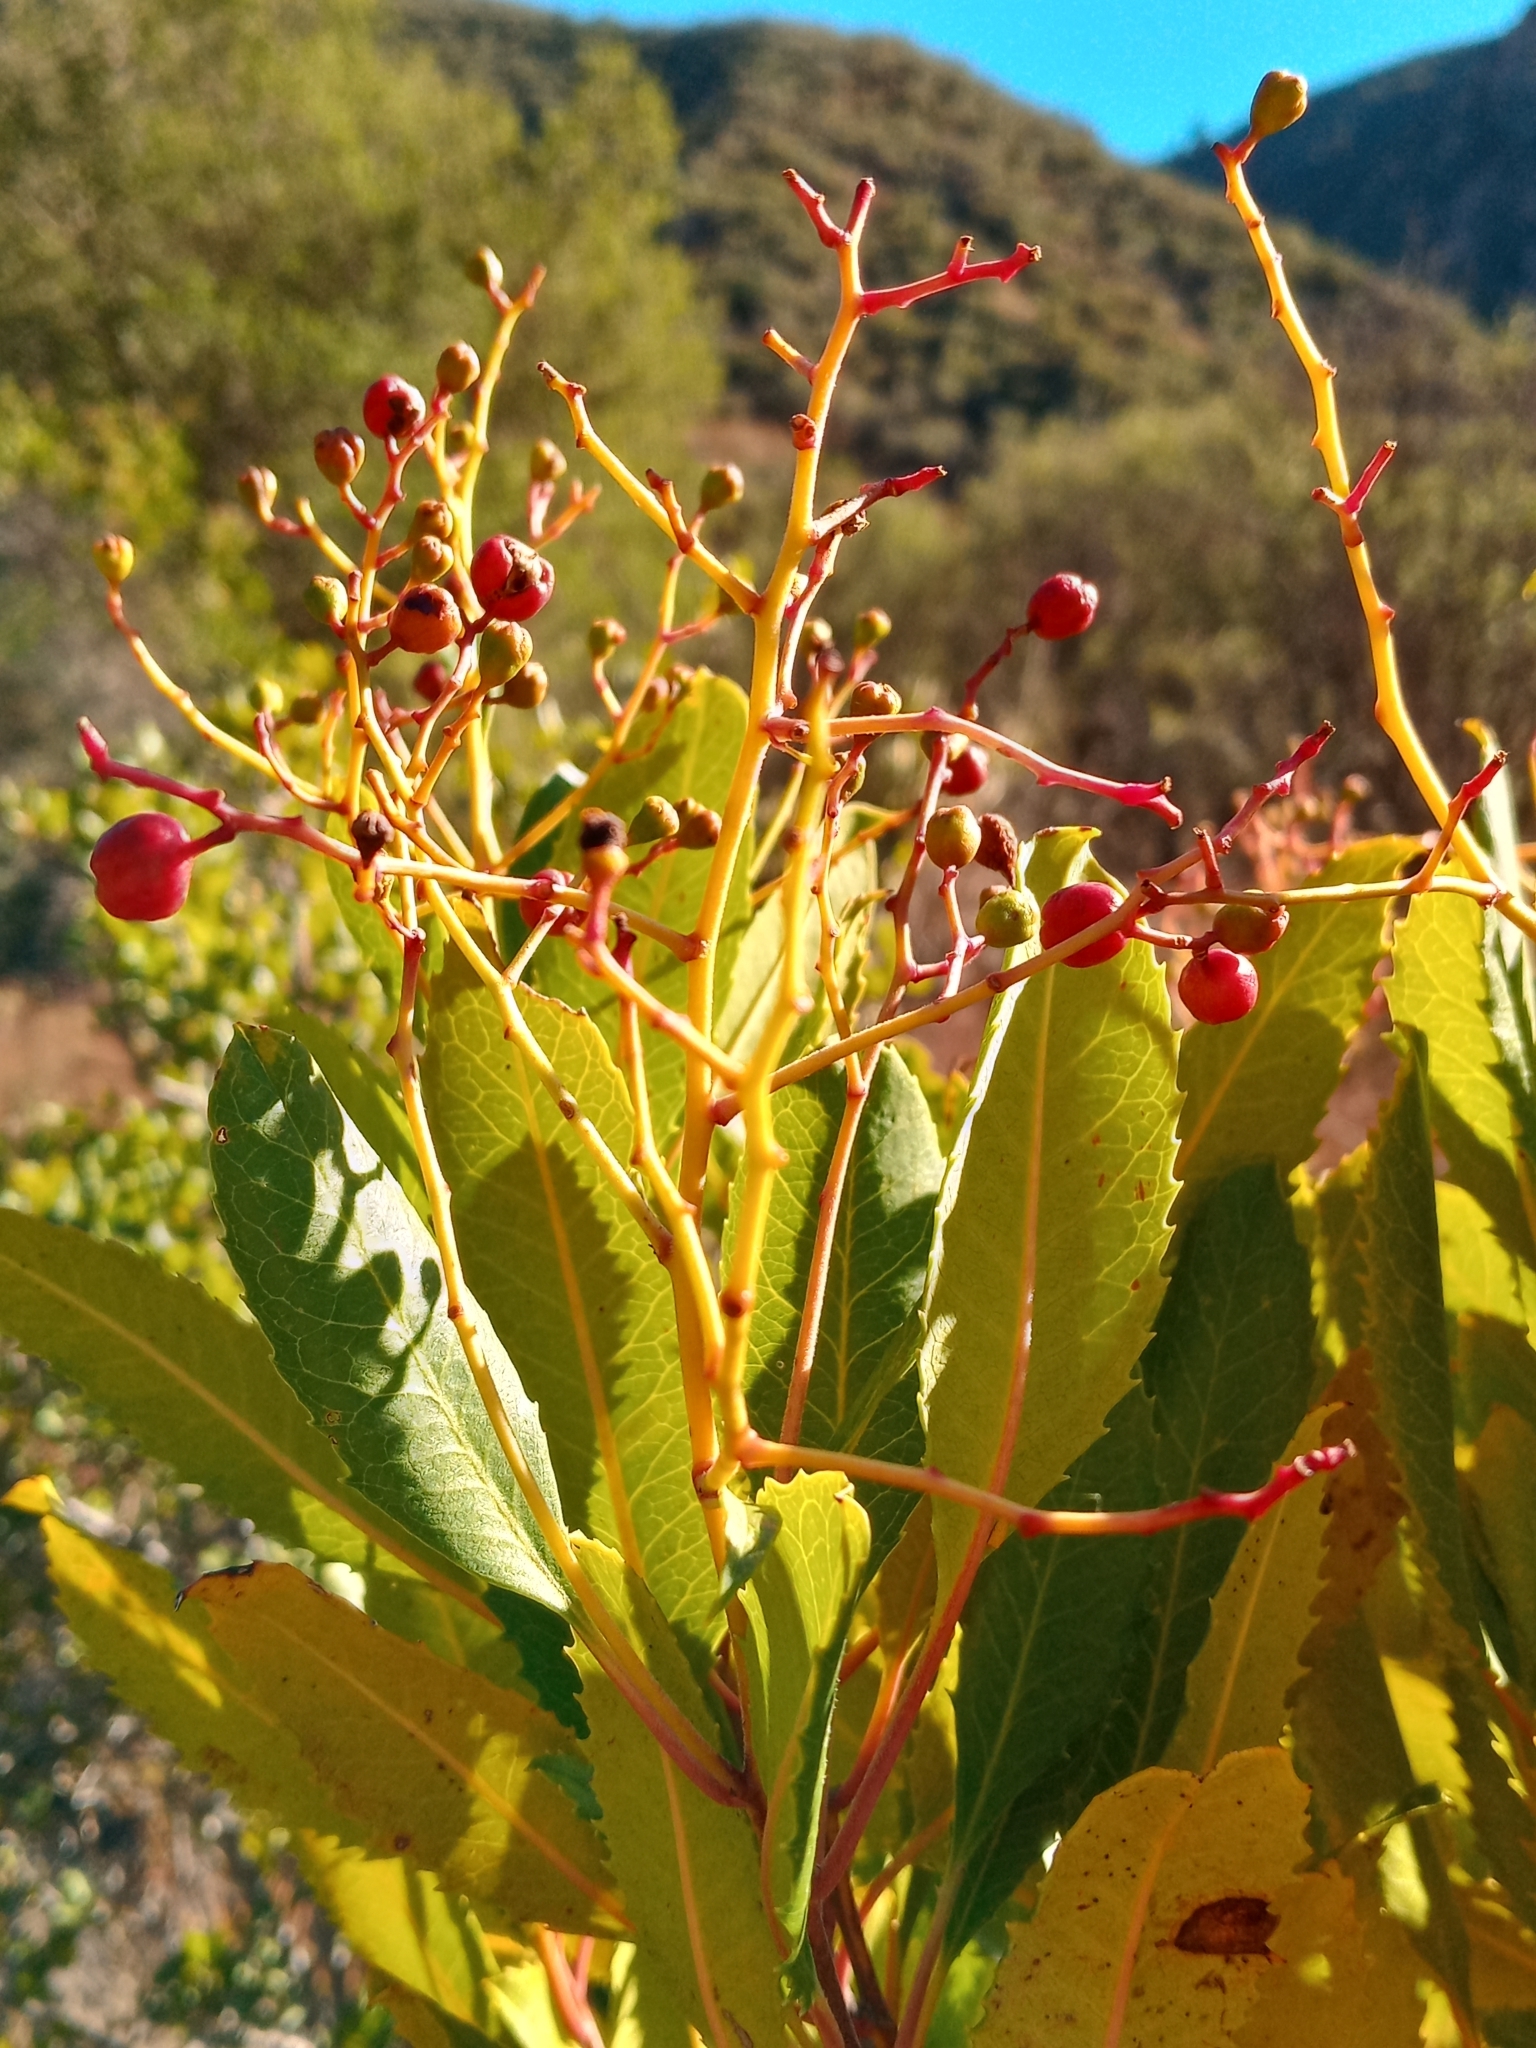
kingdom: Plantae
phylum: Tracheophyta
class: Magnoliopsida
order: Rosales
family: Rosaceae
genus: Heteromeles
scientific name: Heteromeles arbutifolia
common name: California-holly
